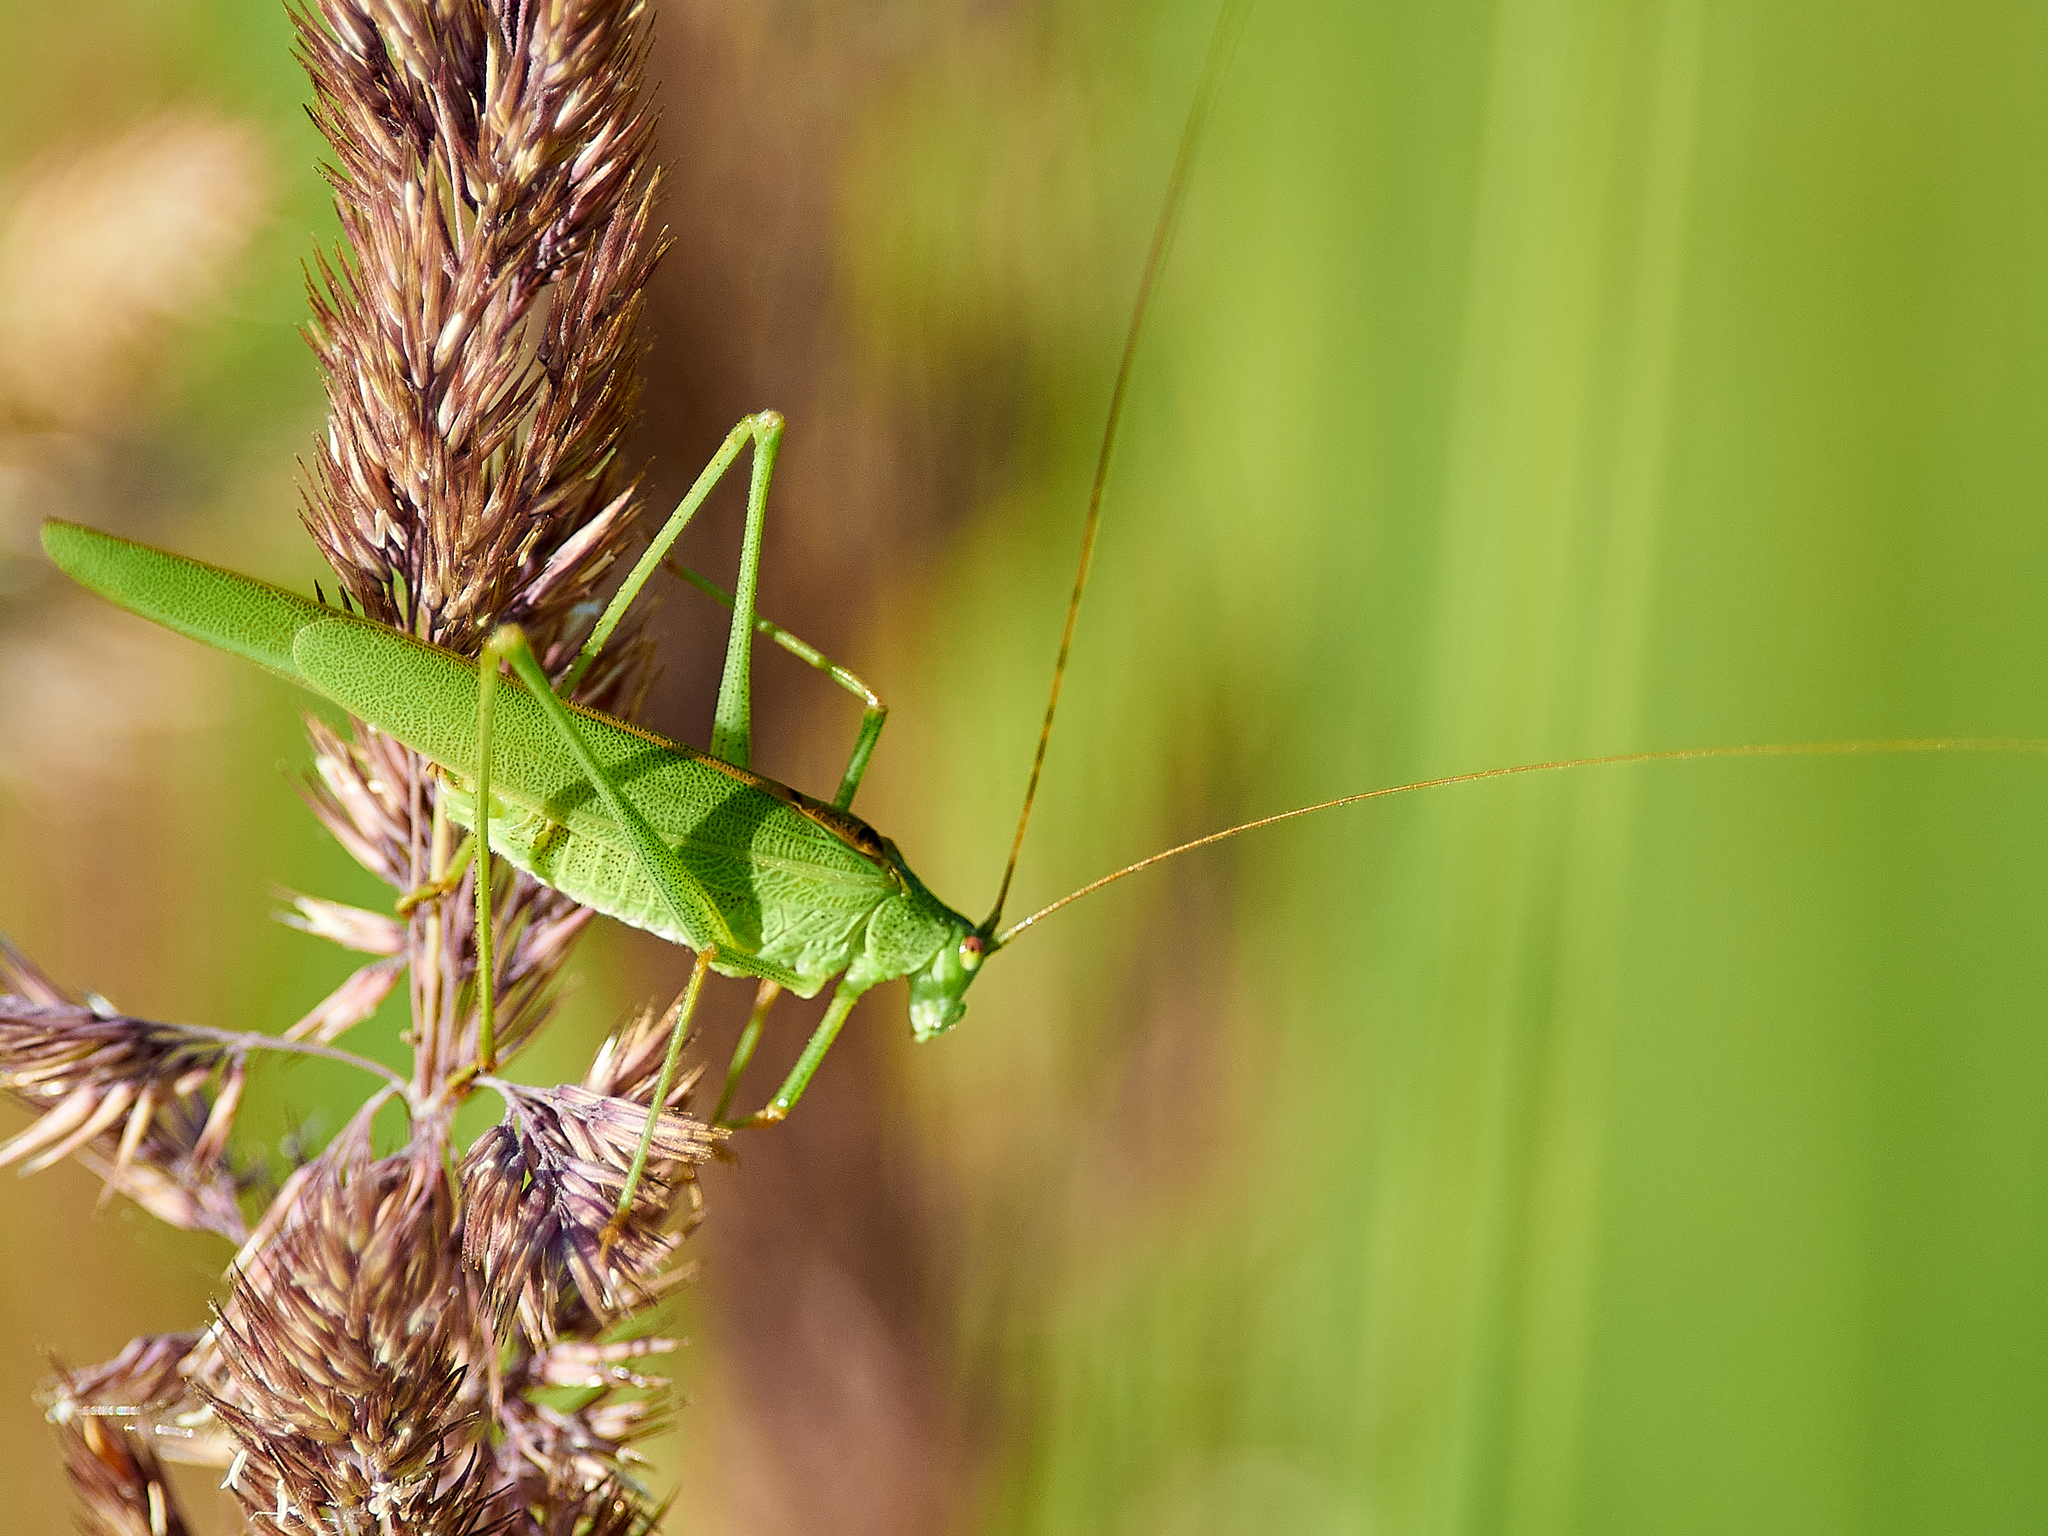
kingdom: Animalia
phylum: Arthropoda
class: Insecta
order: Orthoptera
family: Tettigoniidae
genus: Phaneroptera
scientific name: Phaneroptera falcata
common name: Sickle-bearing bush-cricket
